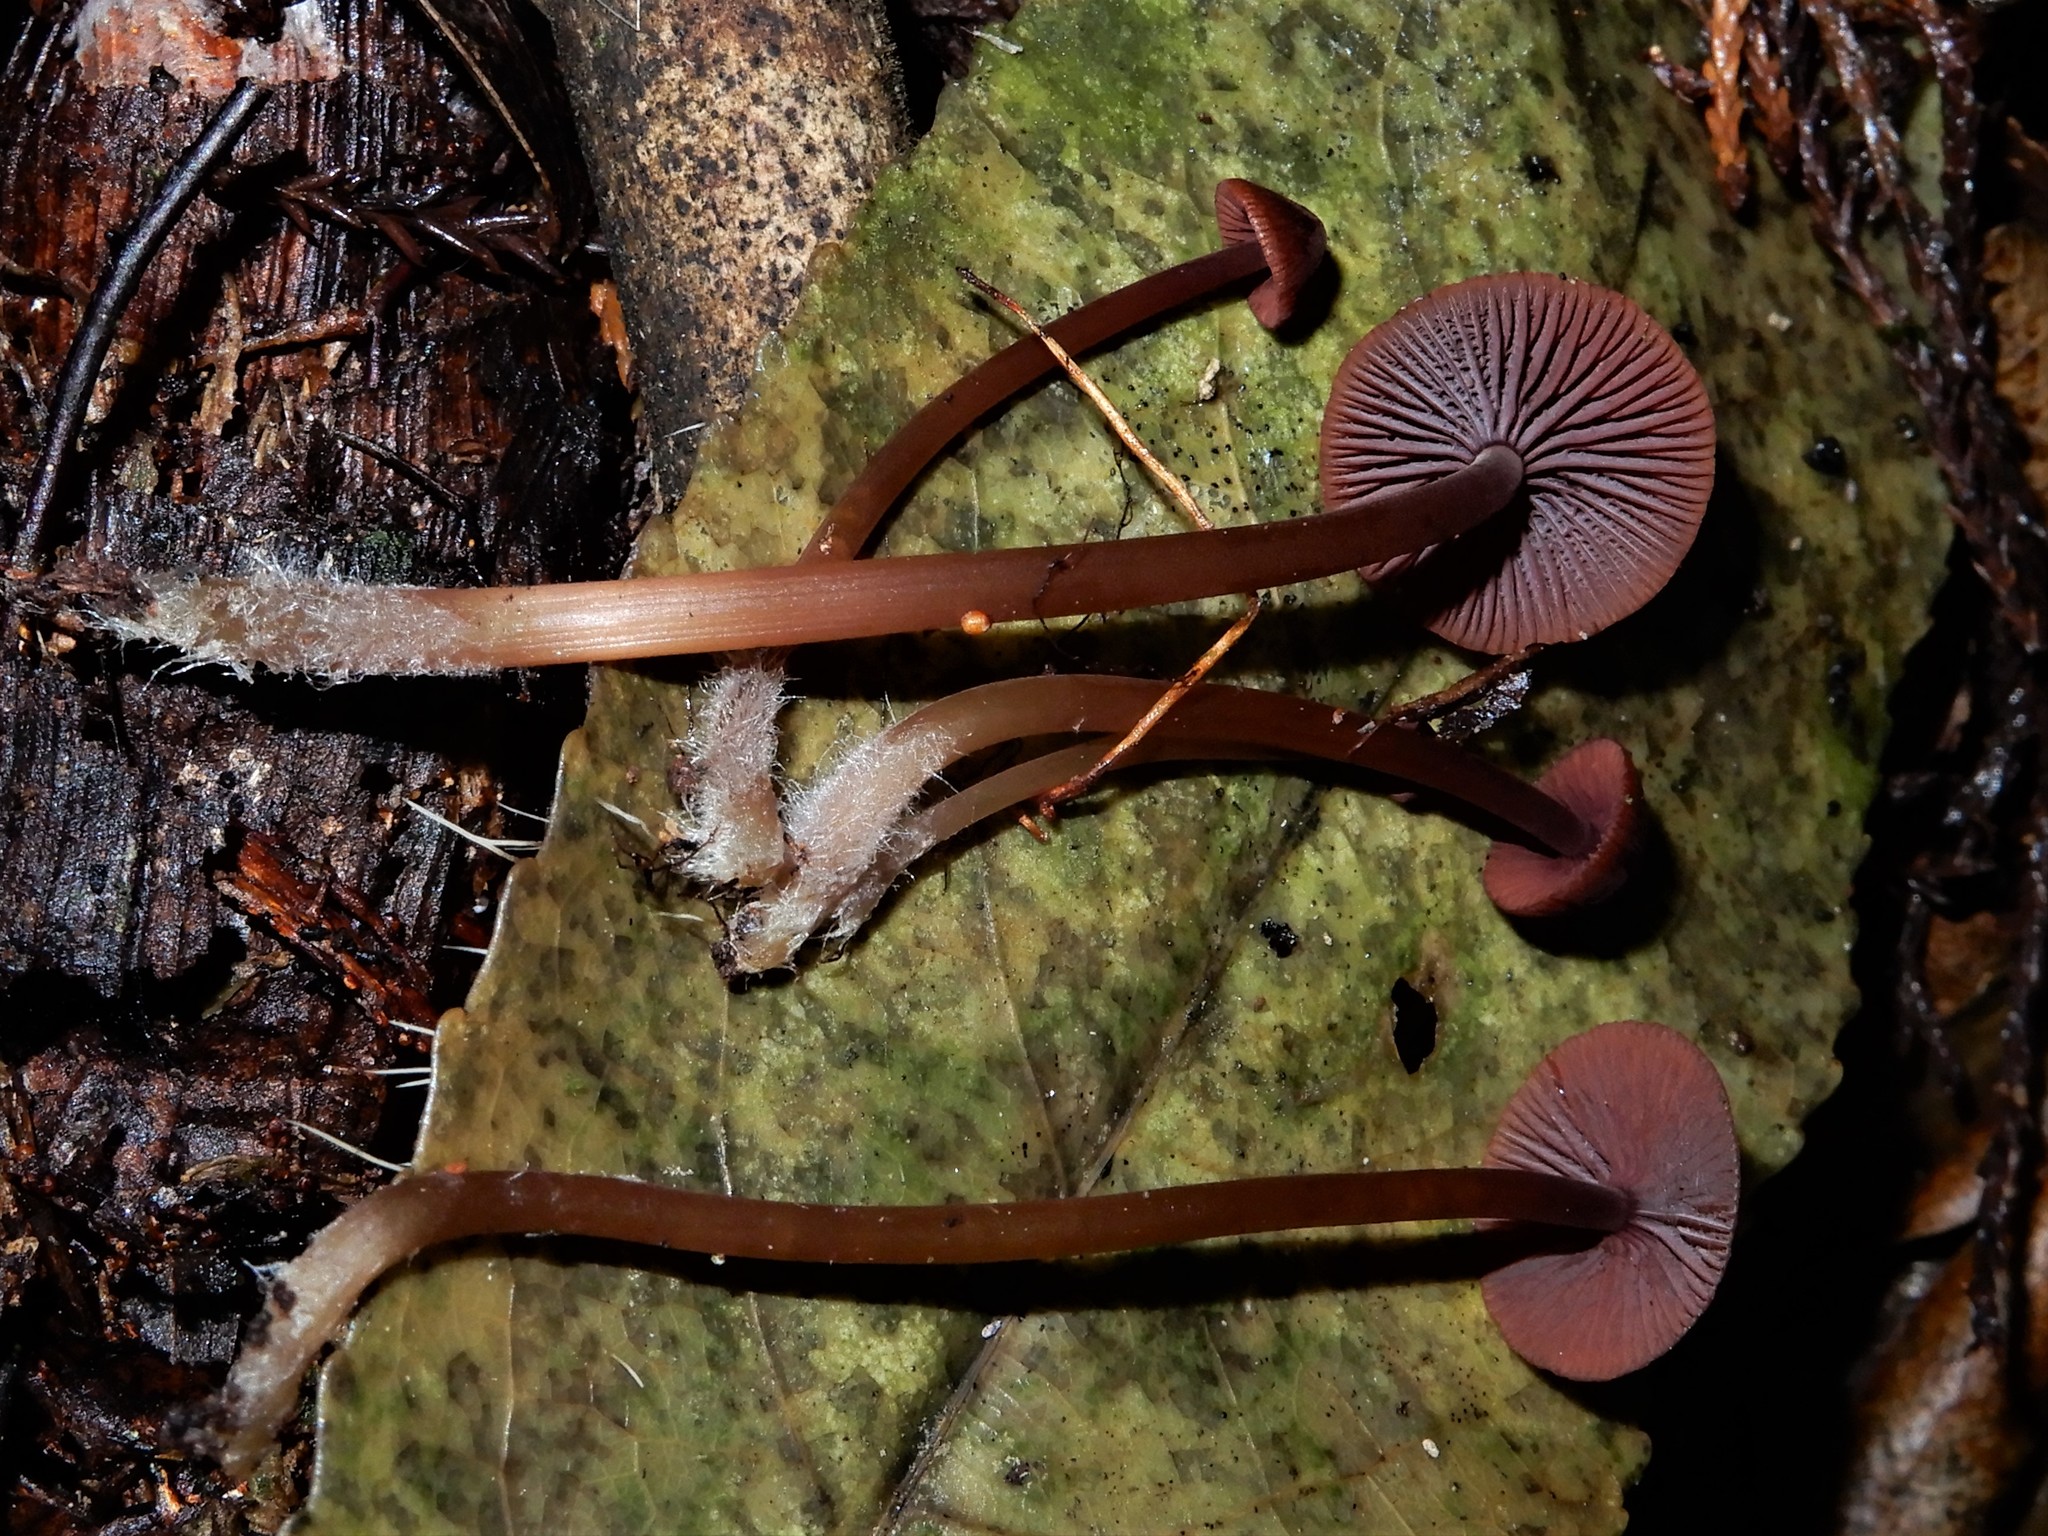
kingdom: Fungi
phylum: Basidiomycota
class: Agaricomycetes
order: Agaricales
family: Mycenaceae
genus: Mycena
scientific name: Mycena
